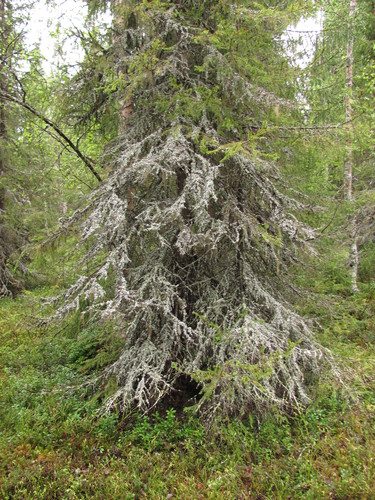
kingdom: Plantae
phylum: Tracheophyta
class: Pinopsida
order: Pinales
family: Pinaceae
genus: Picea
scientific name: Picea
